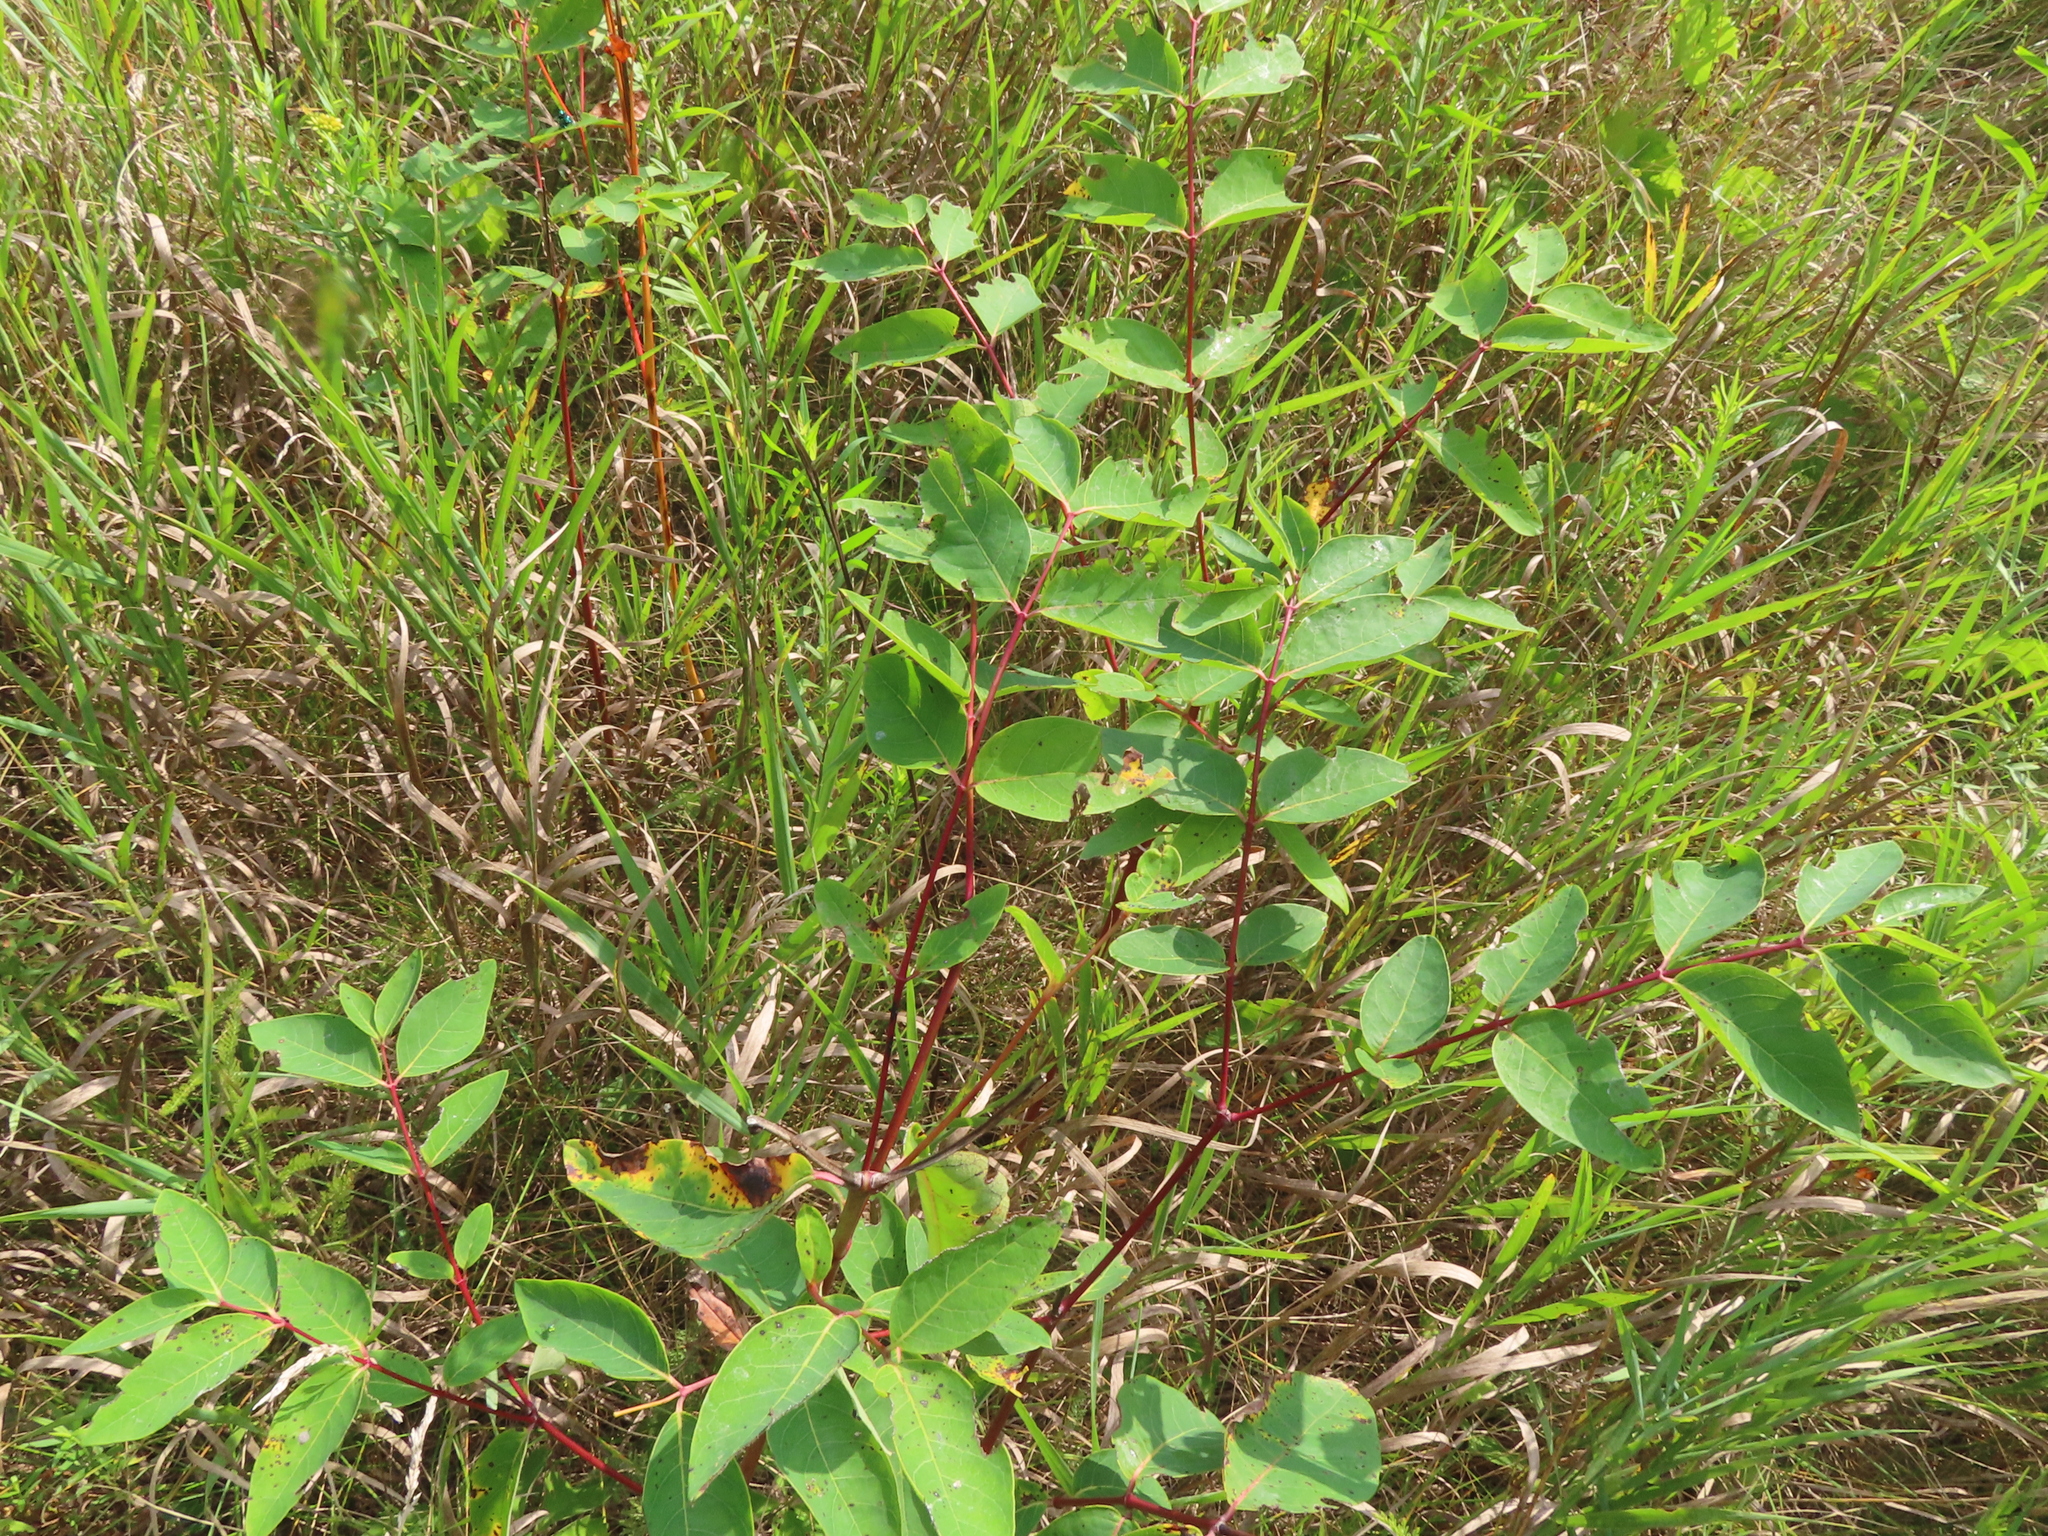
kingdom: Plantae
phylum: Tracheophyta
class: Magnoliopsida
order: Gentianales
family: Apocynaceae
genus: Apocynum
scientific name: Apocynum androsaemifolium
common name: Spreading dogbane
